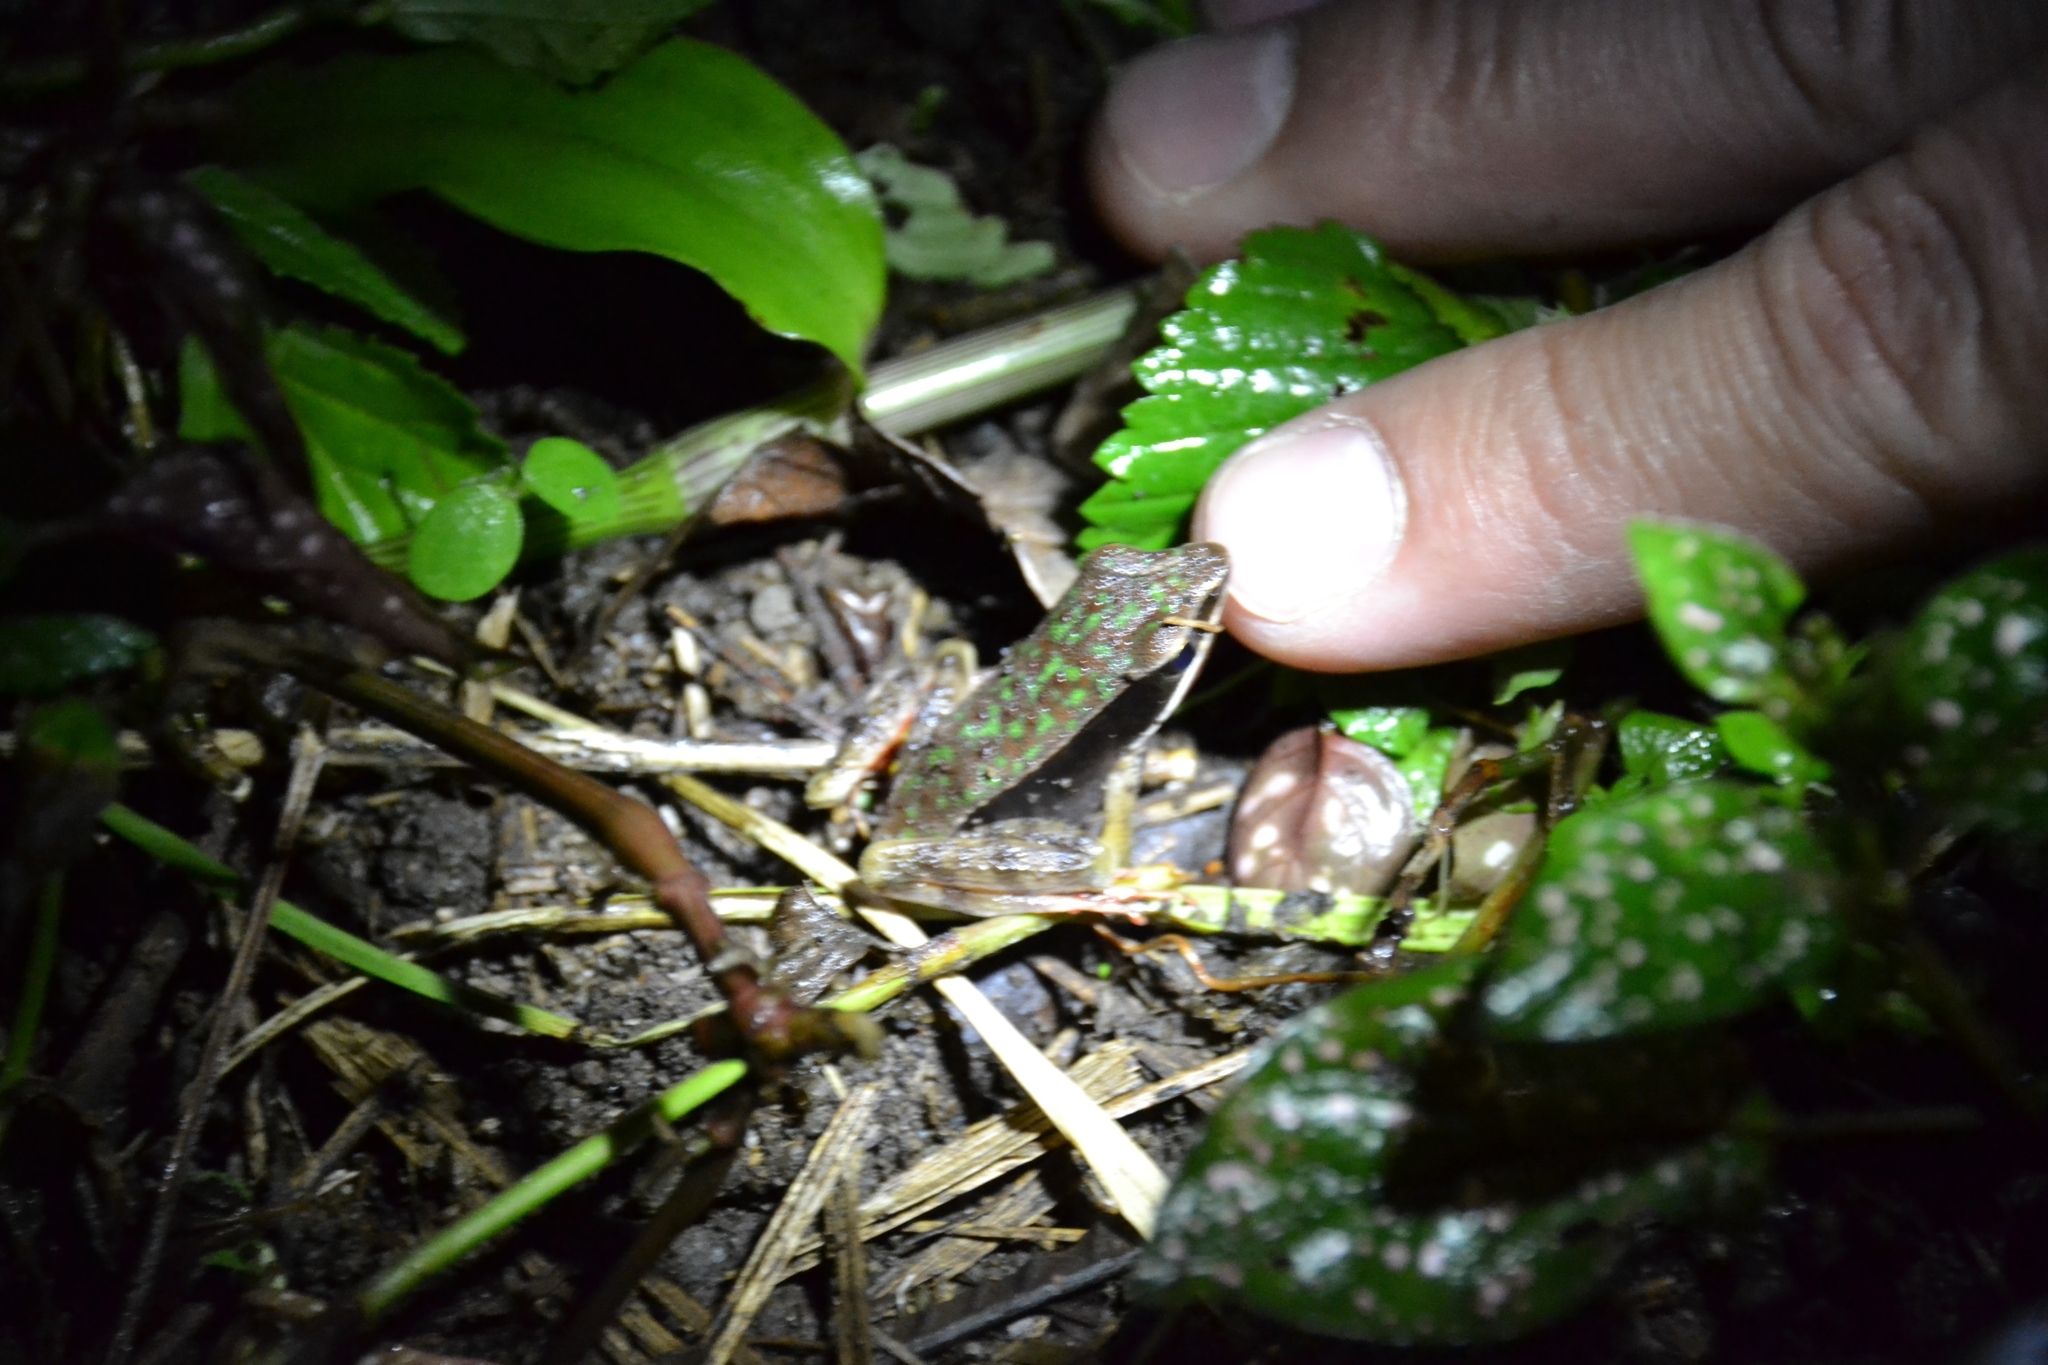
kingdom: Animalia
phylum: Chordata
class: Amphibia
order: Anura
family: Ranidae
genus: Lithobates
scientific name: Lithobates warszewitschii
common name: Warszewitsch's frog
